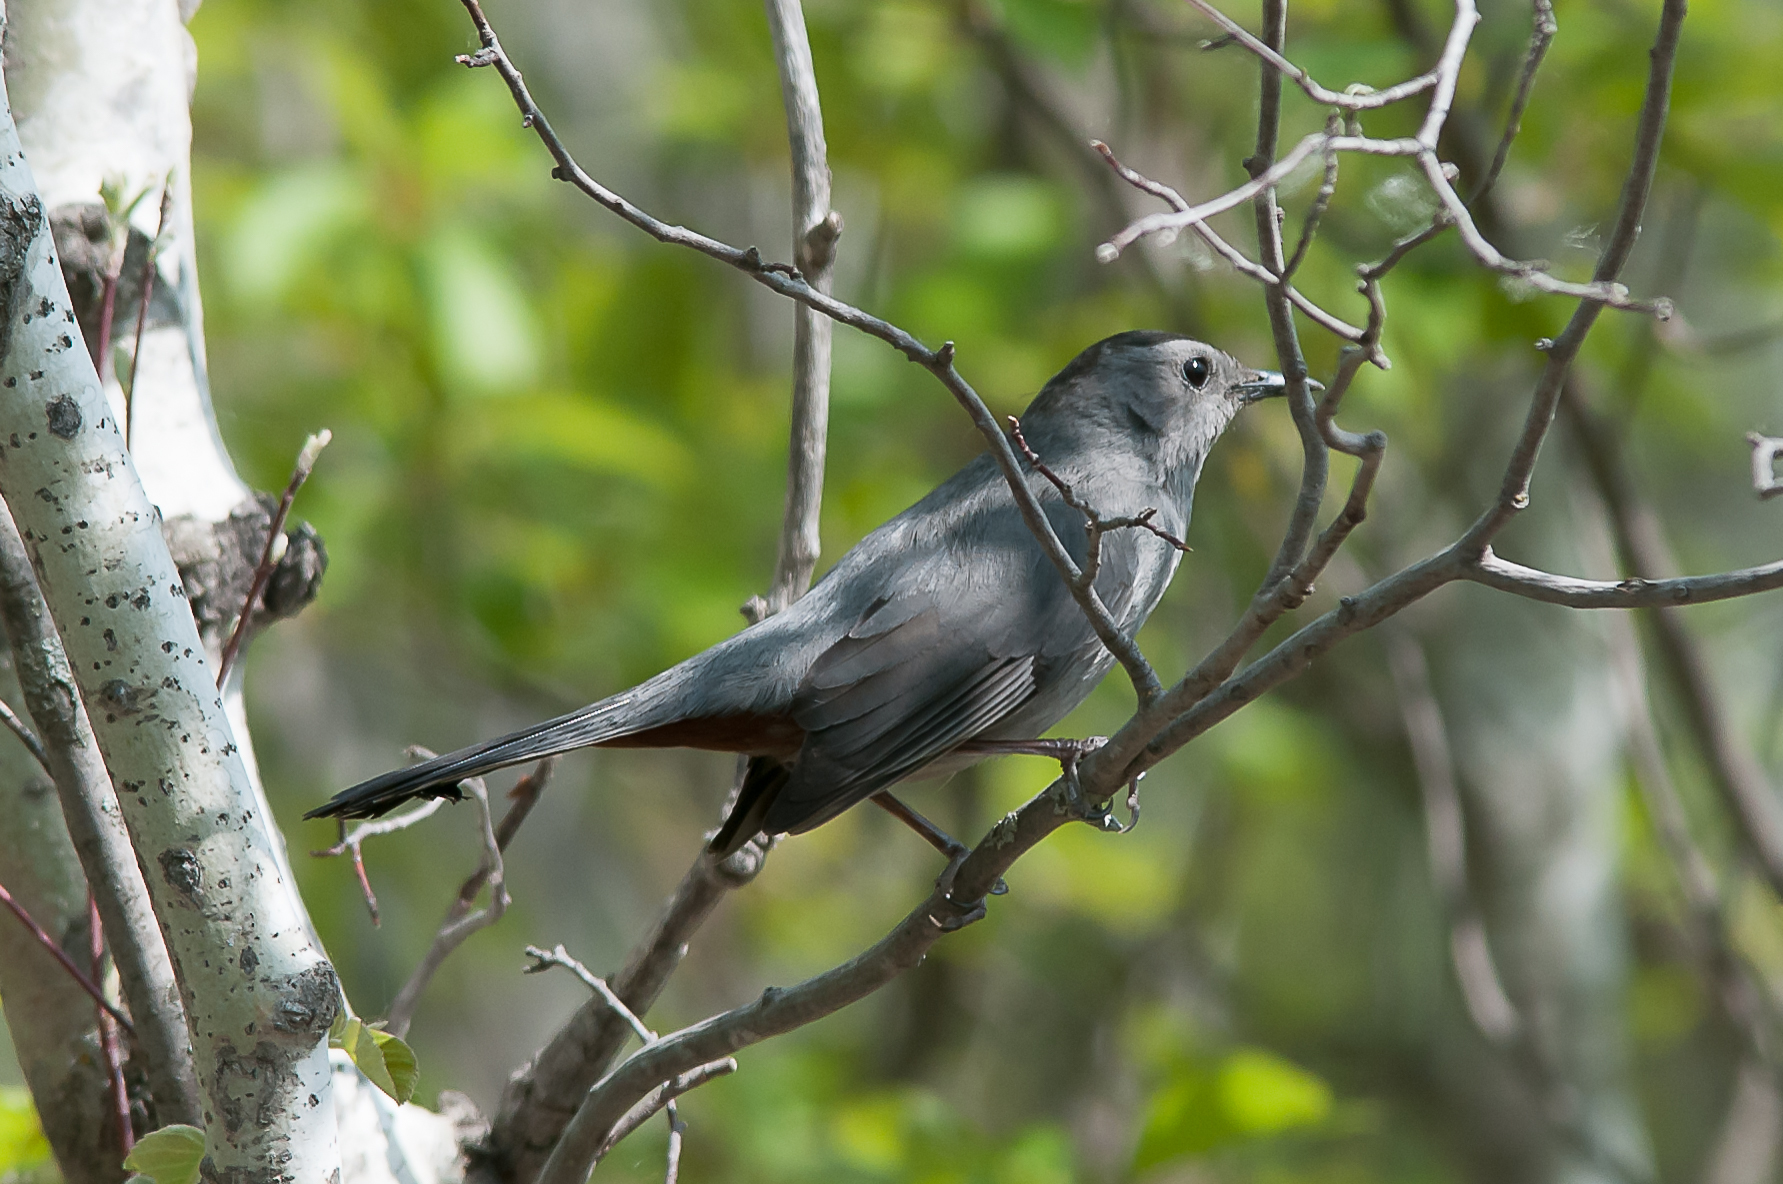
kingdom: Animalia
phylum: Chordata
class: Aves
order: Passeriformes
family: Mimidae
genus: Dumetella
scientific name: Dumetella carolinensis
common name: Gray catbird
